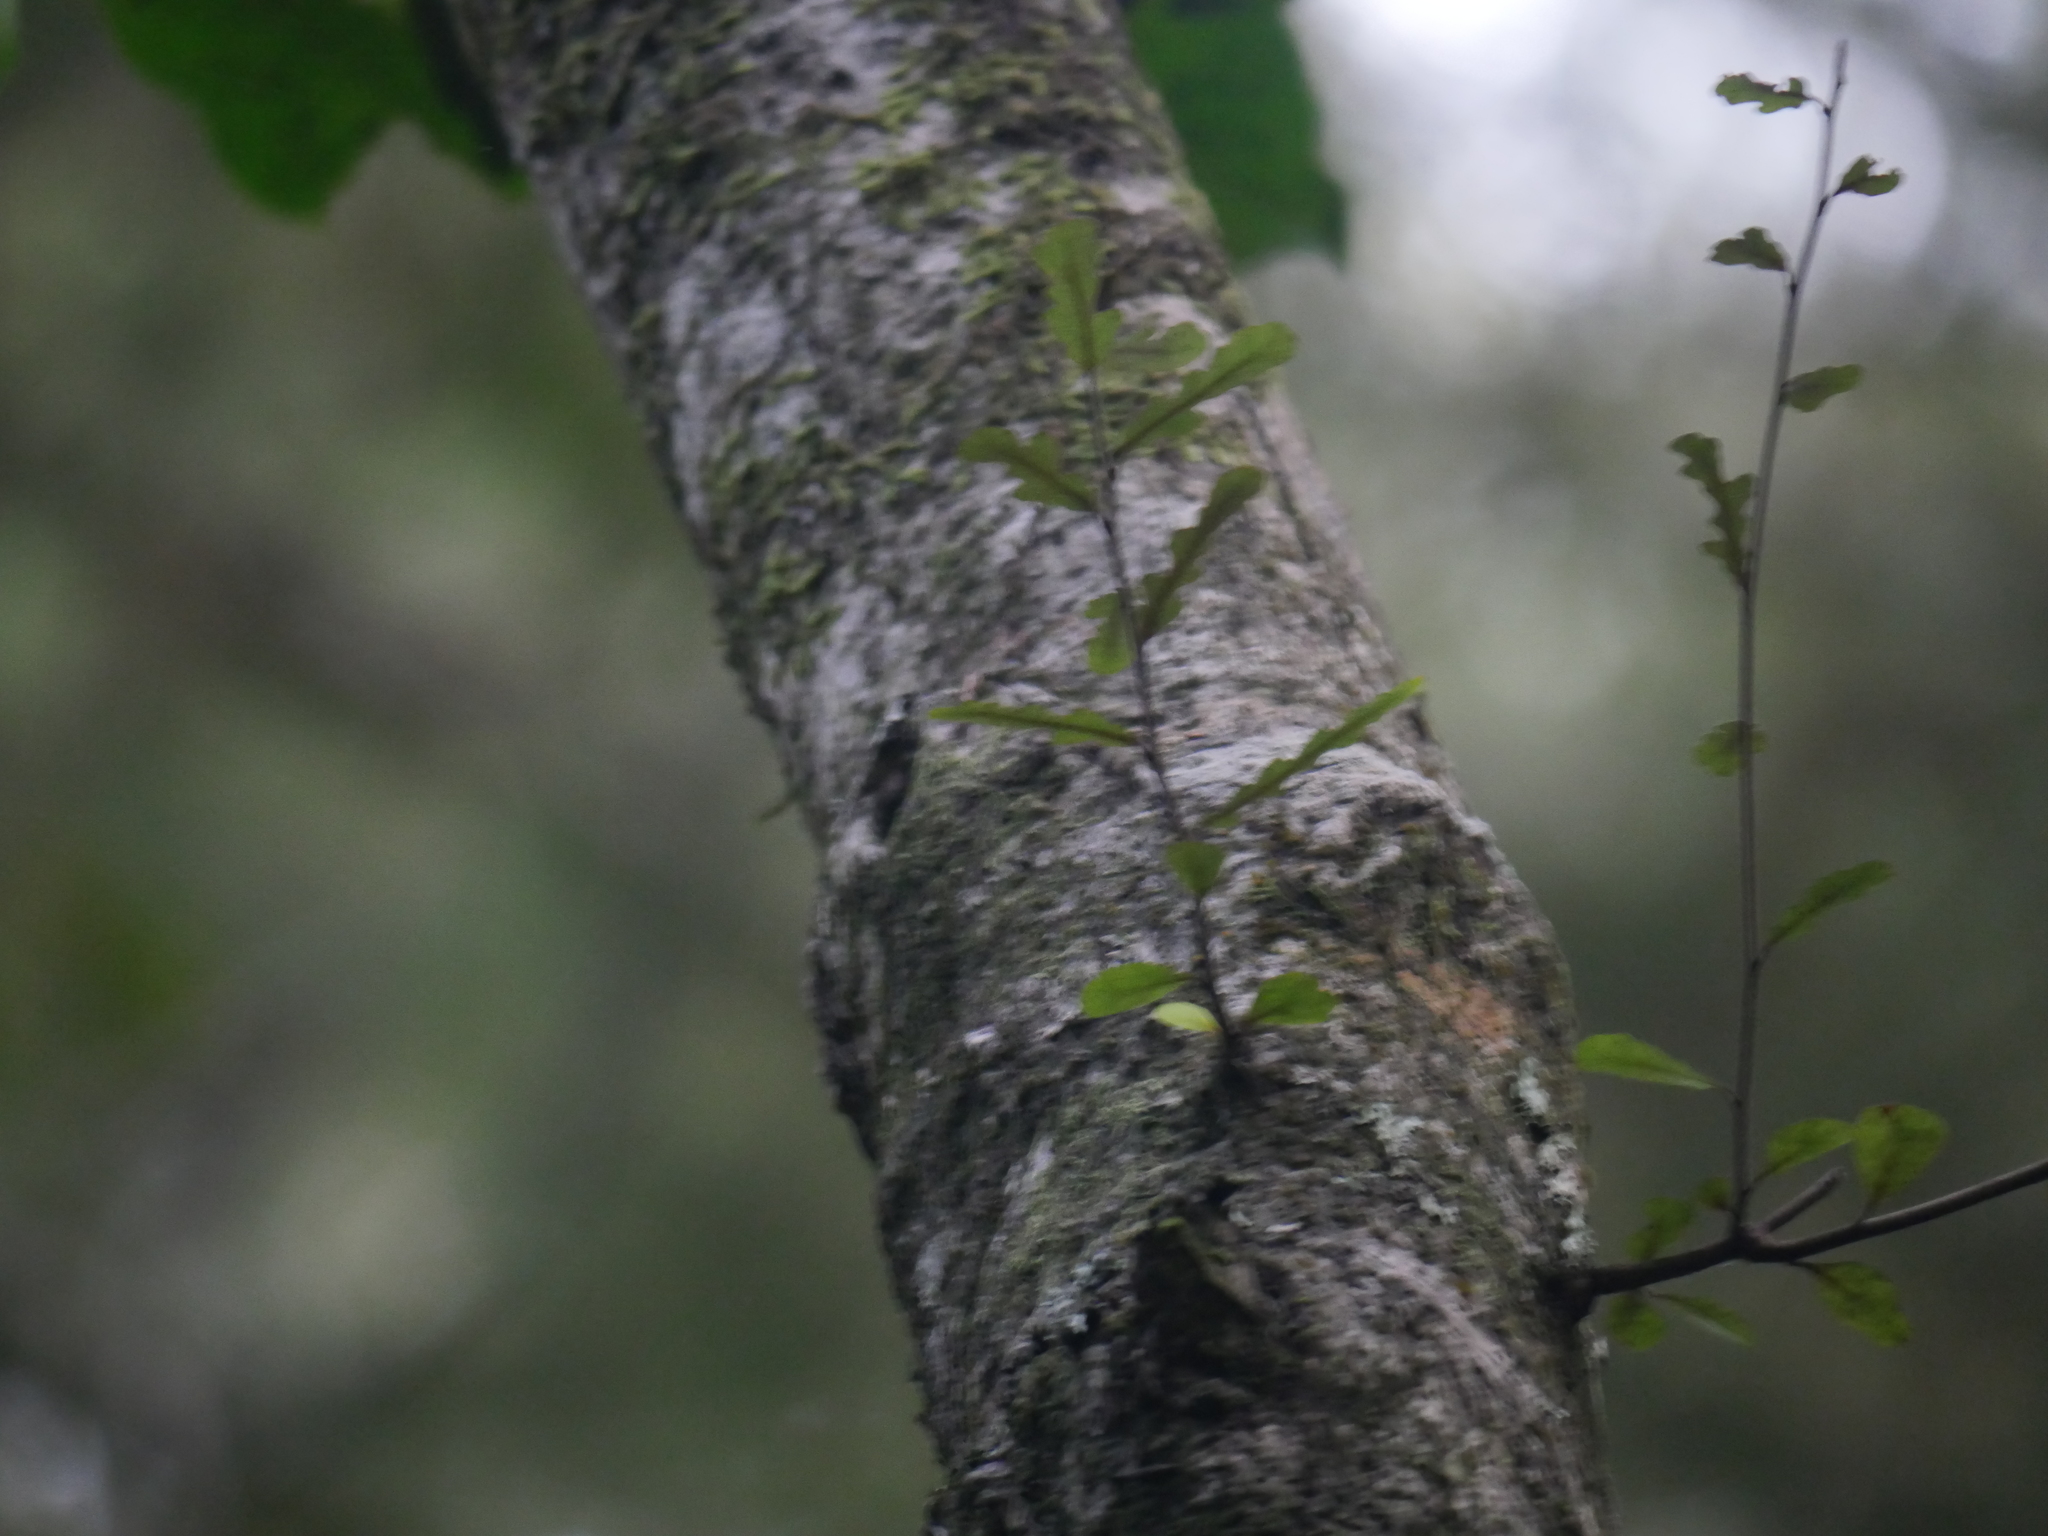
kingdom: Plantae
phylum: Tracheophyta
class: Magnoliopsida
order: Oxalidales
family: Elaeocarpaceae
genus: Elaeocarpus
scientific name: Elaeocarpus hookerianus
